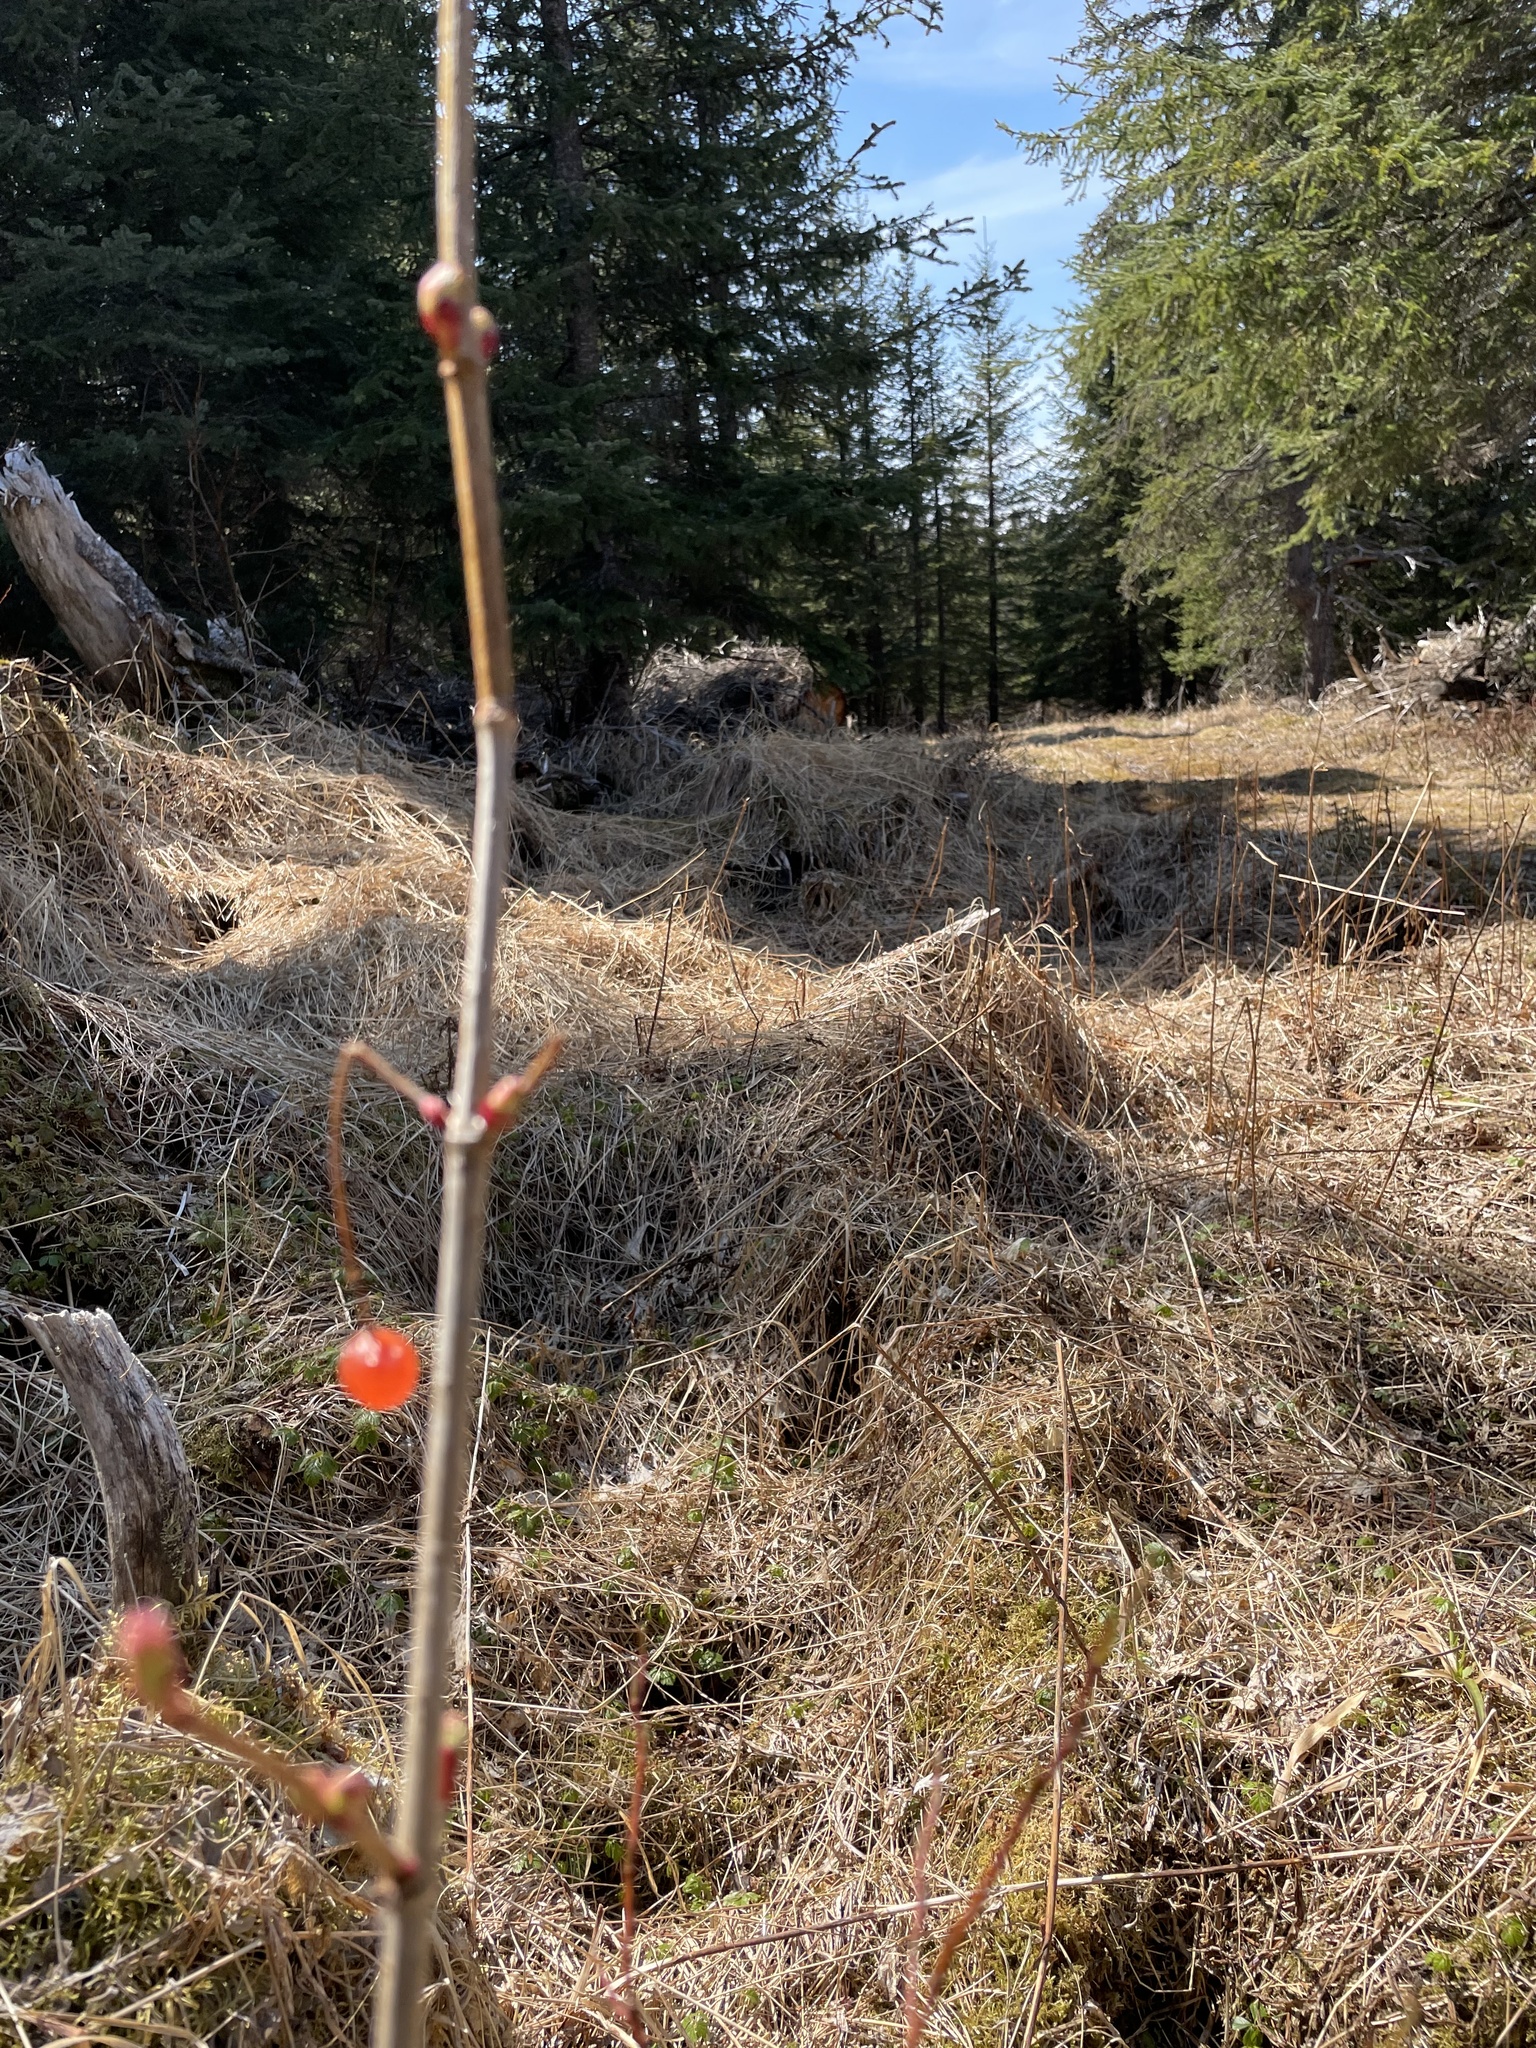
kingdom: Plantae
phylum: Tracheophyta
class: Magnoliopsida
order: Dipsacales
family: Viburnaceae
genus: Viburnum
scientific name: Viburnum edule
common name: Mooseberry
